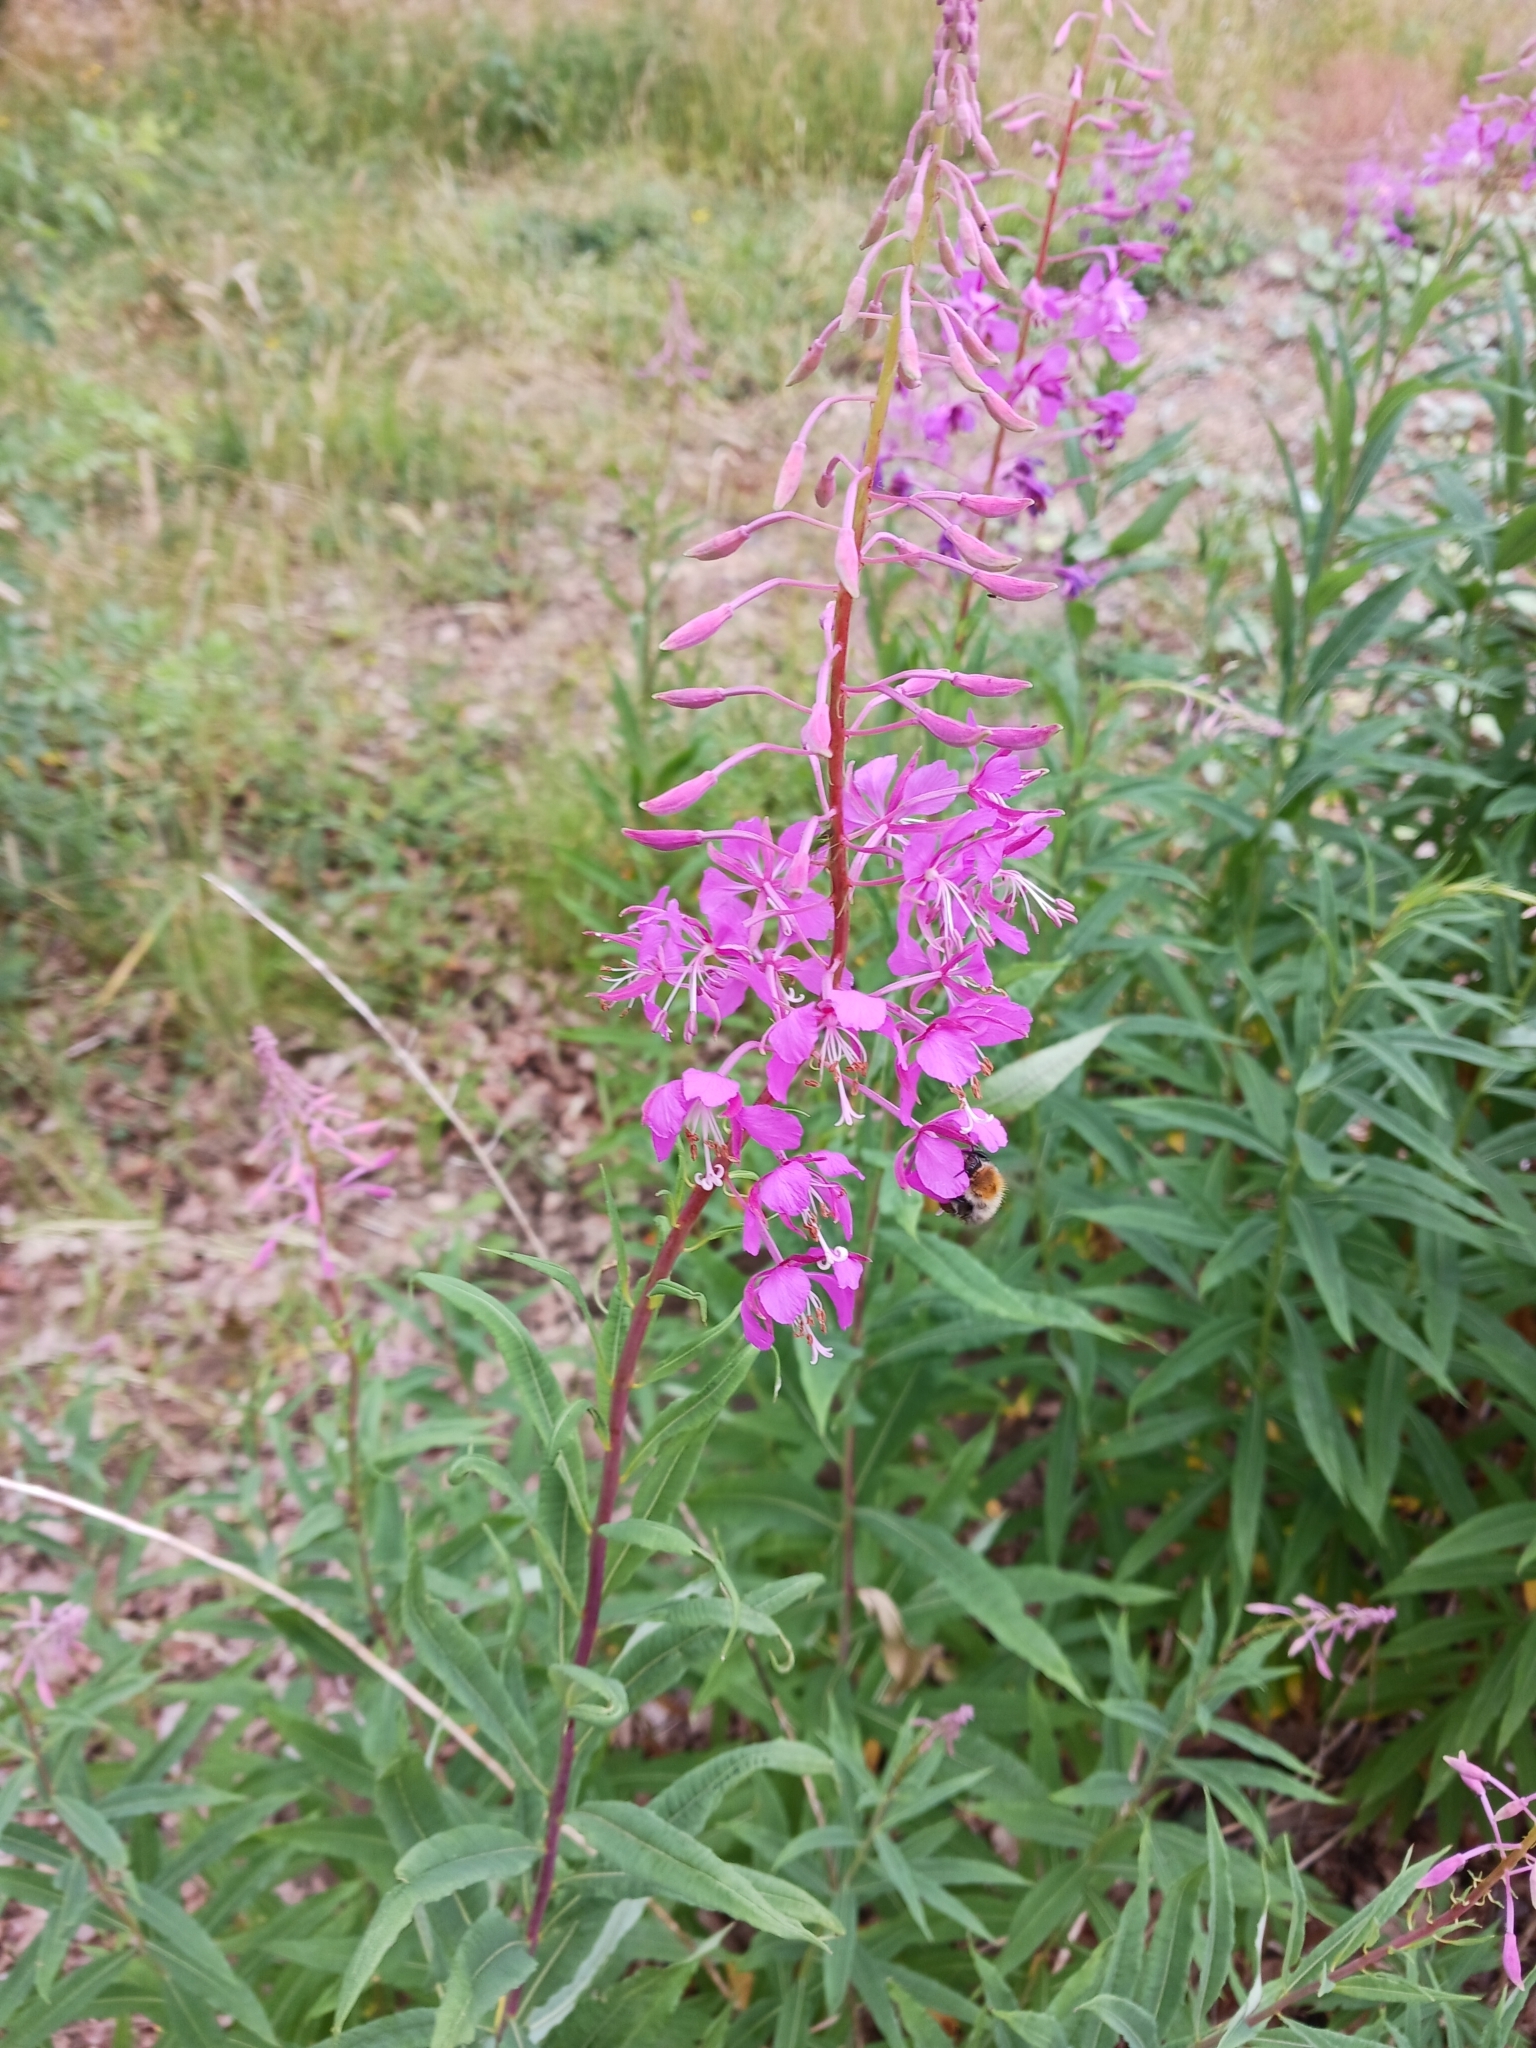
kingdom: Plantae
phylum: Tracheophyta
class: Magnoliopsida
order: Myrtales
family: Onagraceae
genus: Chamaenerion
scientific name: Chamaenerion angustifolium
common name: Fireweed
